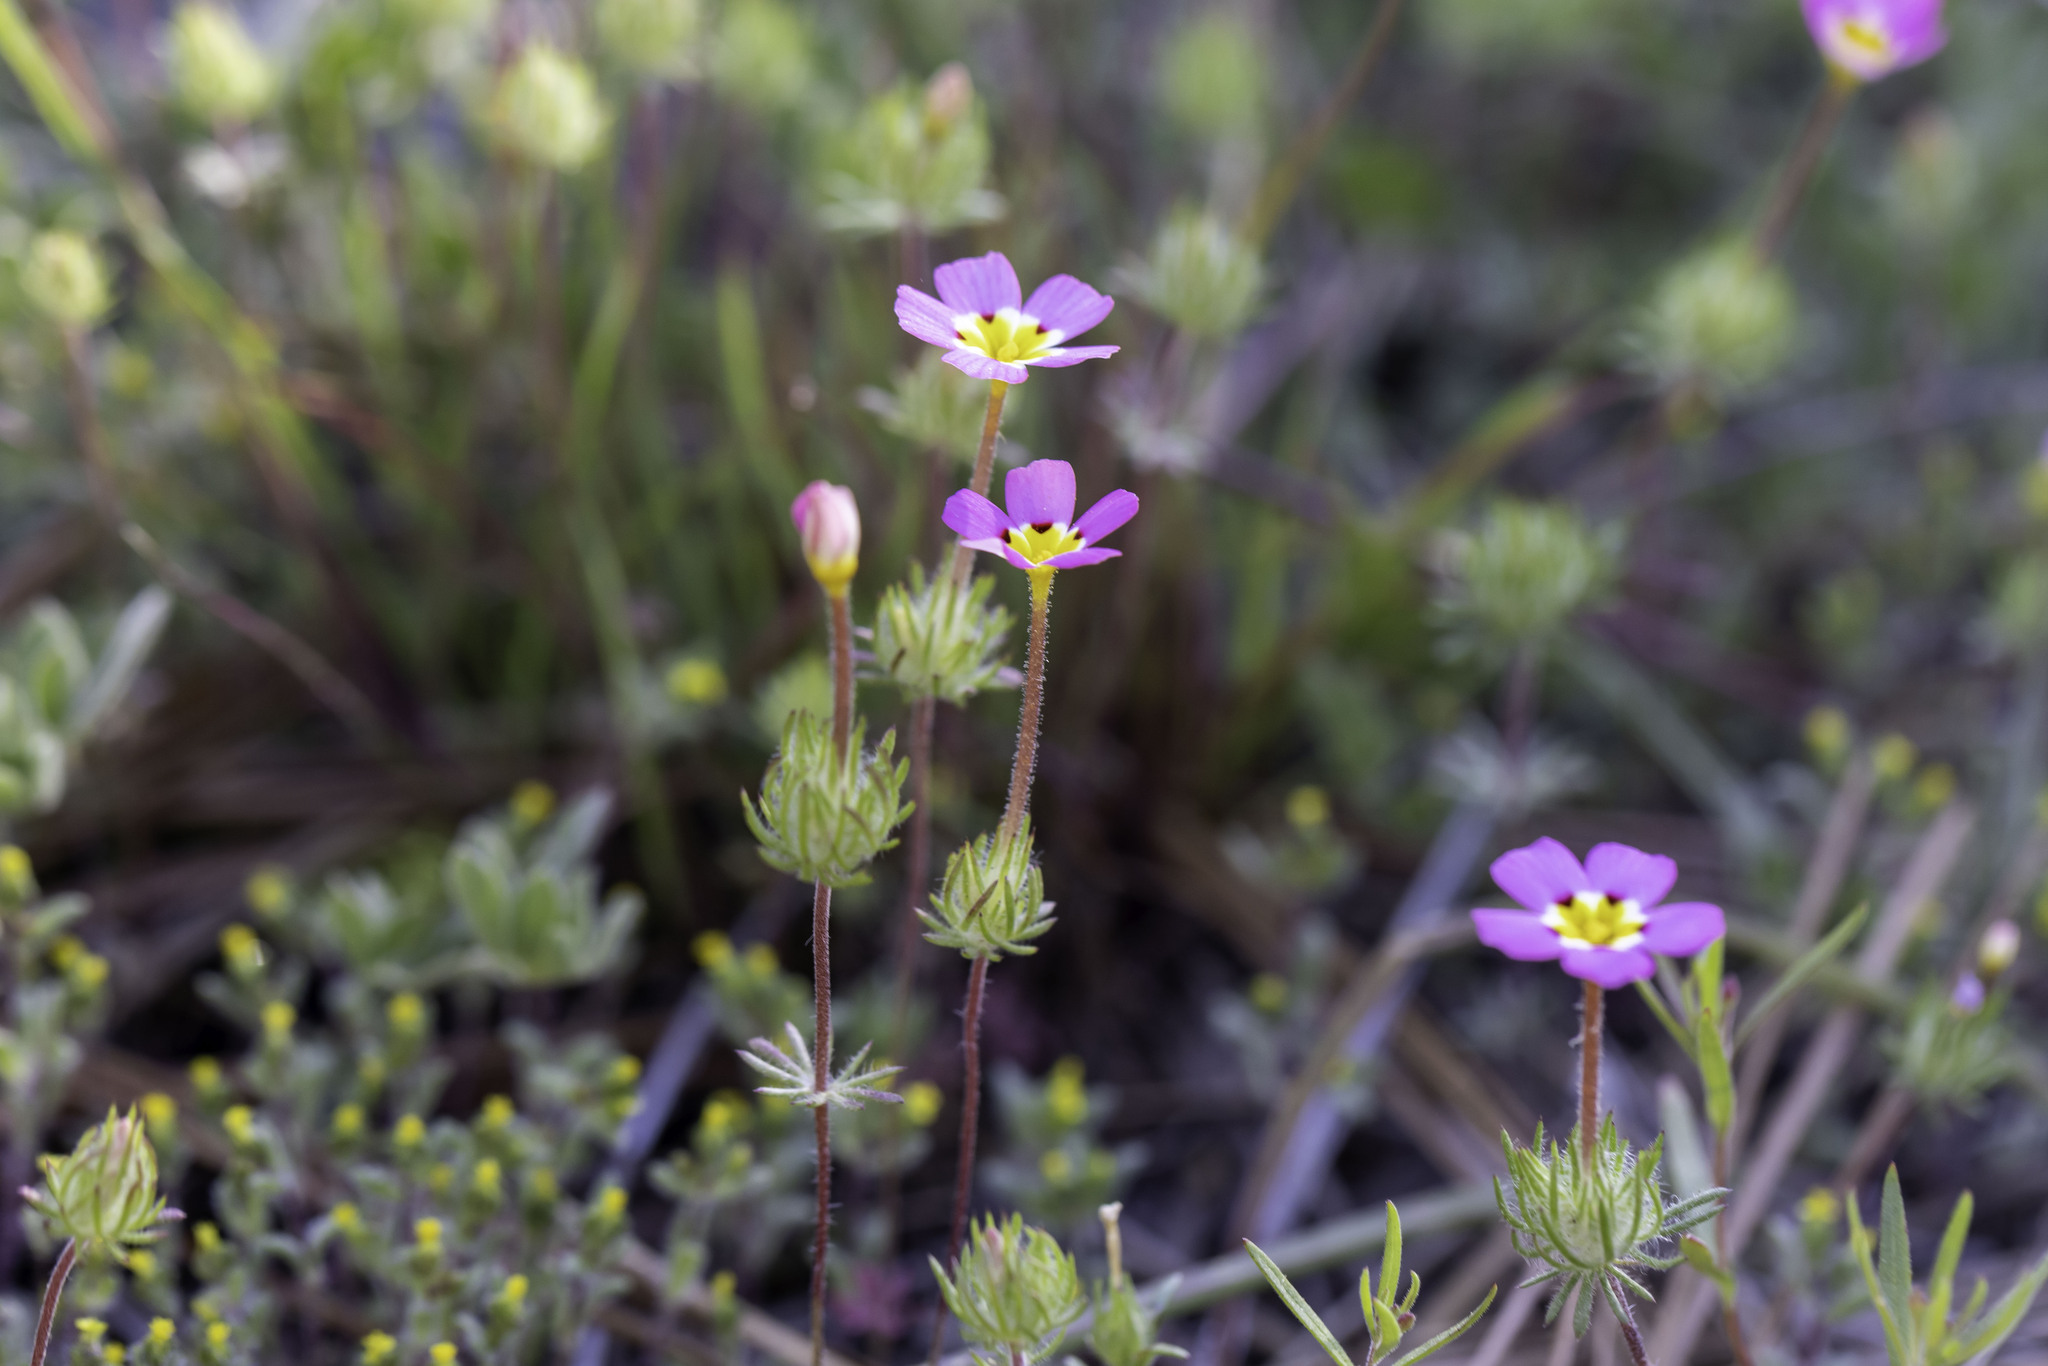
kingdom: Plantae
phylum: Tracheophyta
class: Magnoliopsida
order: Ericales
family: Polemoniaceae
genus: Leptosiphon
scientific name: Leptosiphon ciliatus
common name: Whiskerbrush
